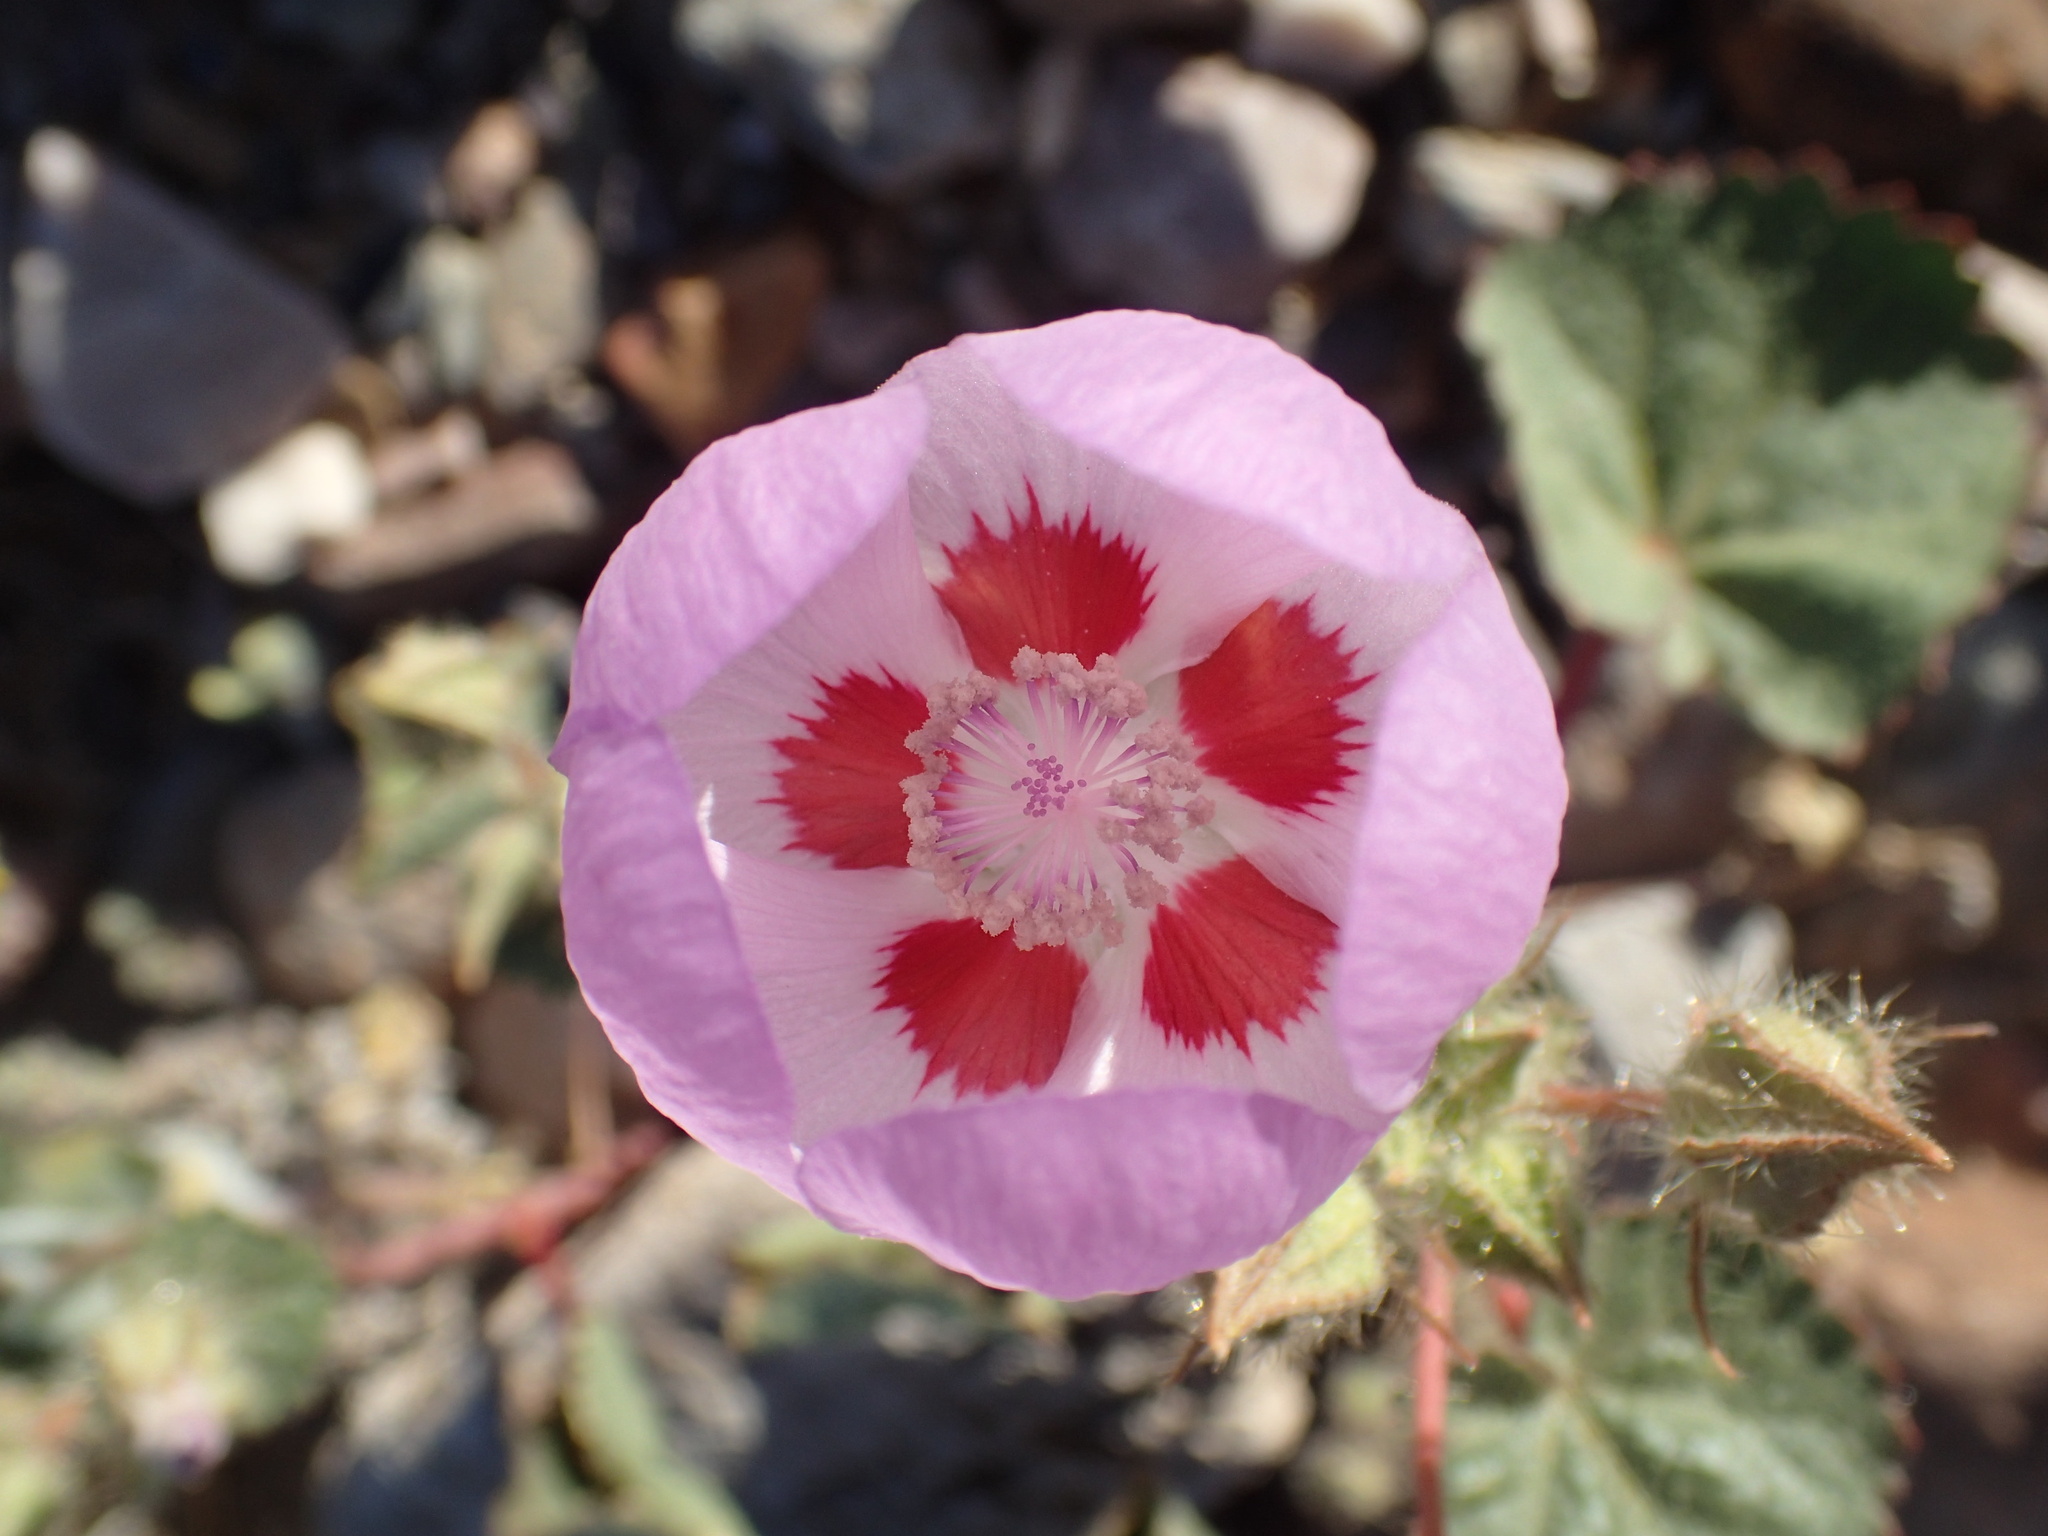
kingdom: Plantae
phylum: Tracheophyta
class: Magnoliopsida
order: Malvales
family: Malvaceae
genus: Eremalche
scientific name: Eremalche rotundifolia
